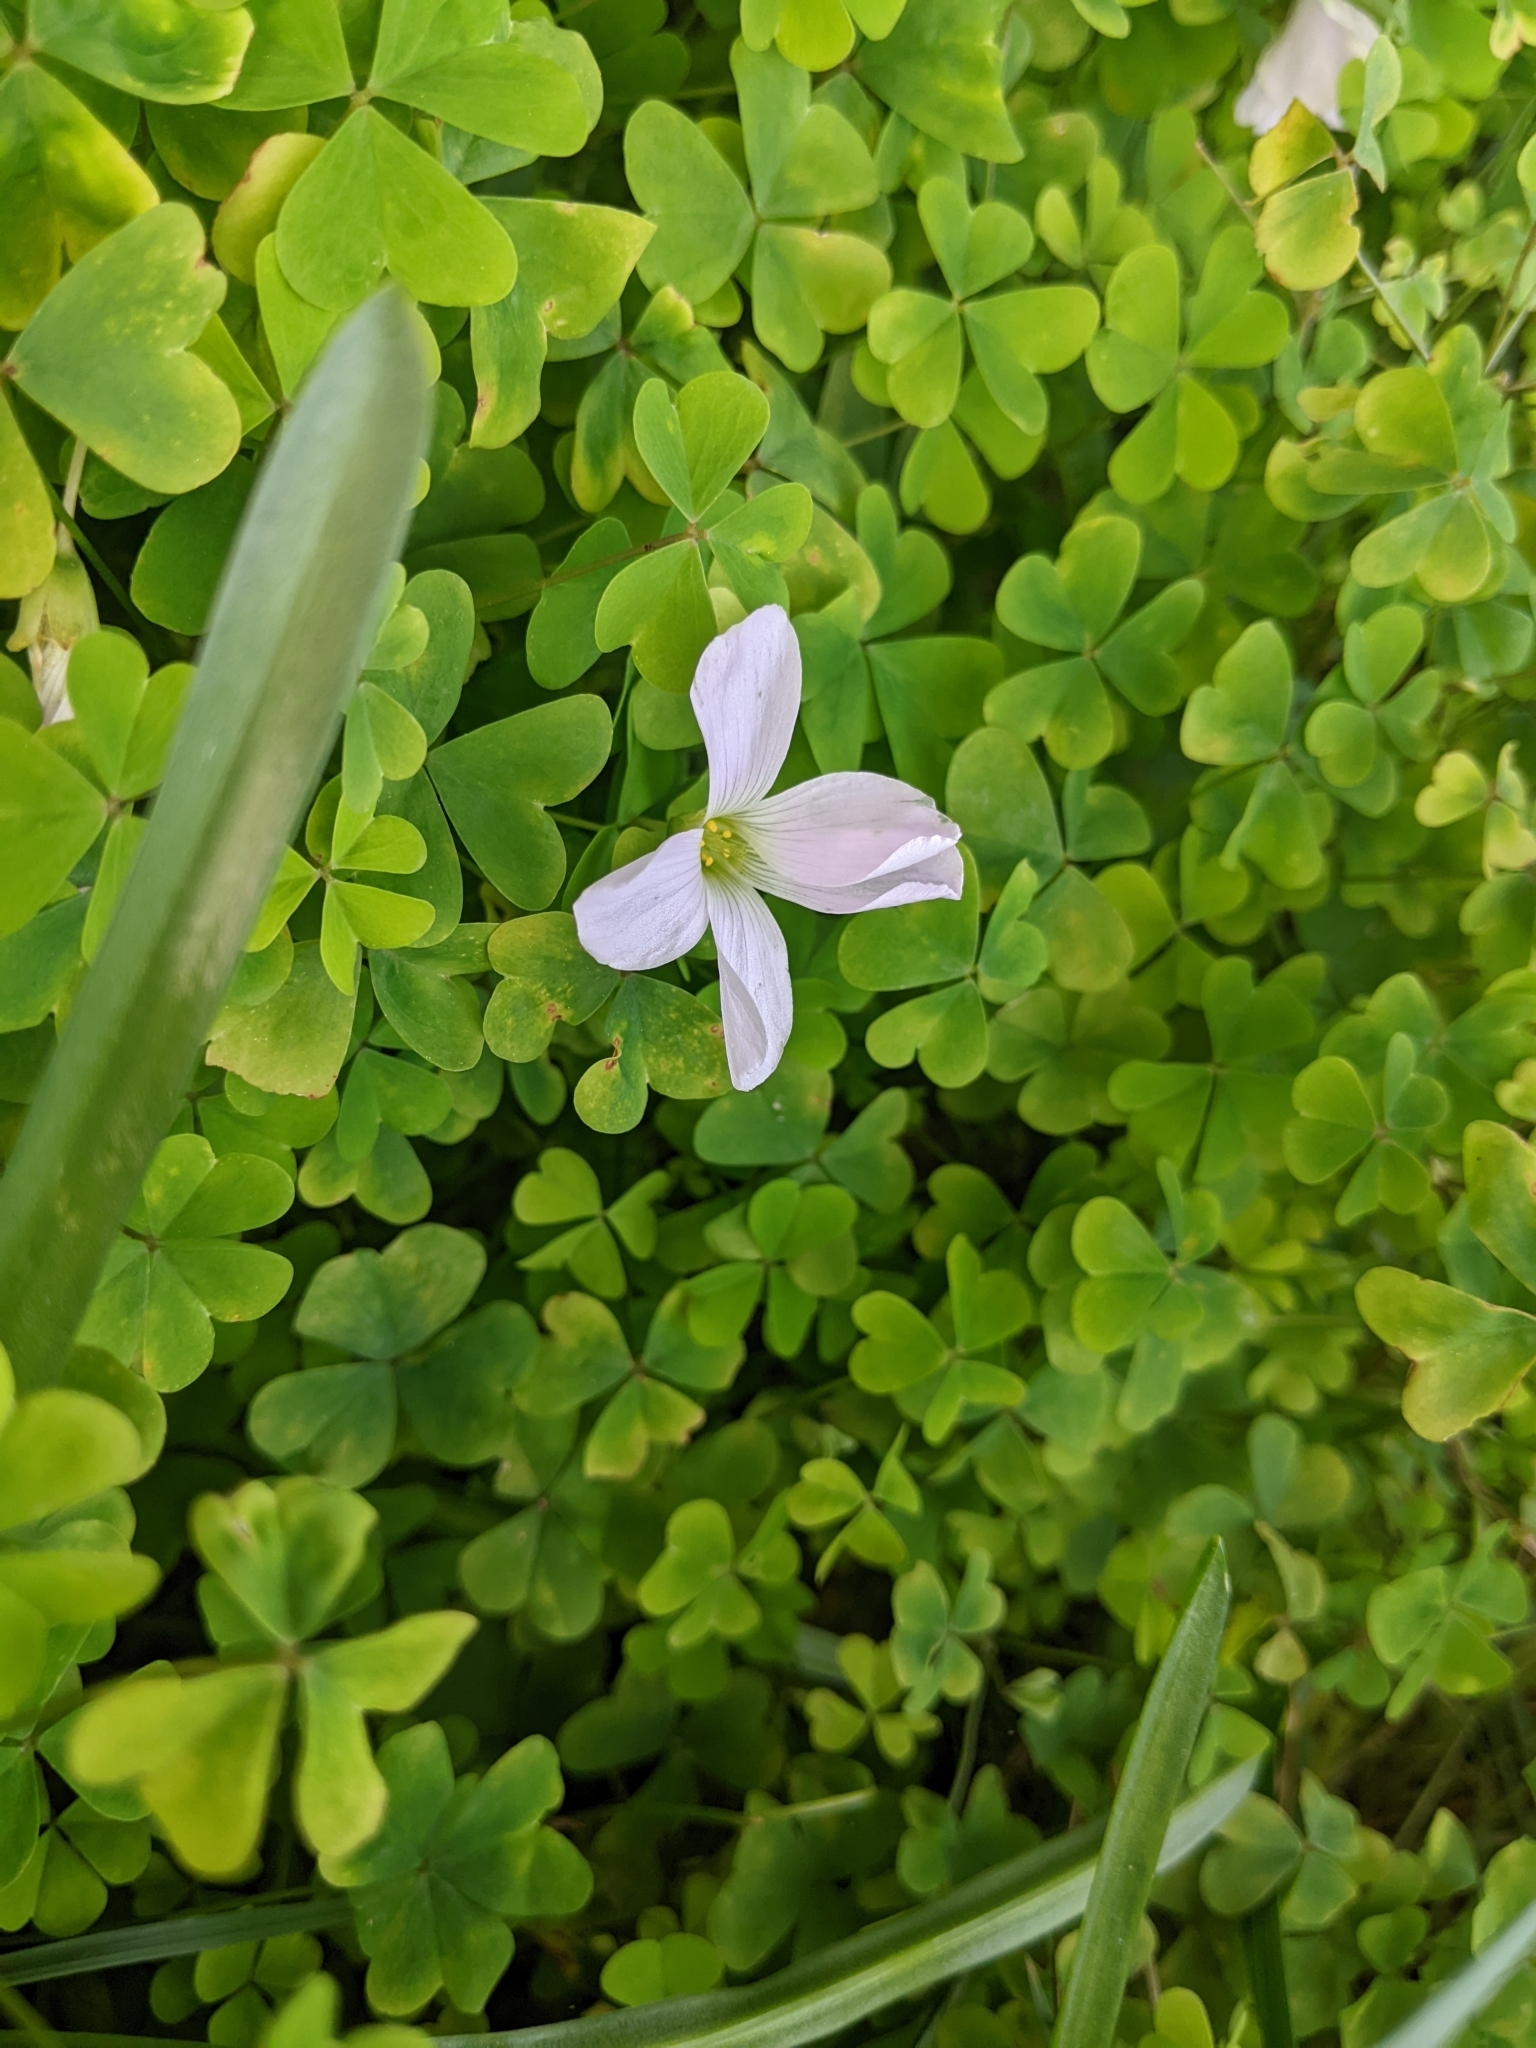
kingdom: Plantae
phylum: Tracheophyta
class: Magnoliopsida
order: Oxalidales
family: Oxalidaceae
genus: Oxalis
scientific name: Oxalis incarnata
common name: Pale pink-sorrel
